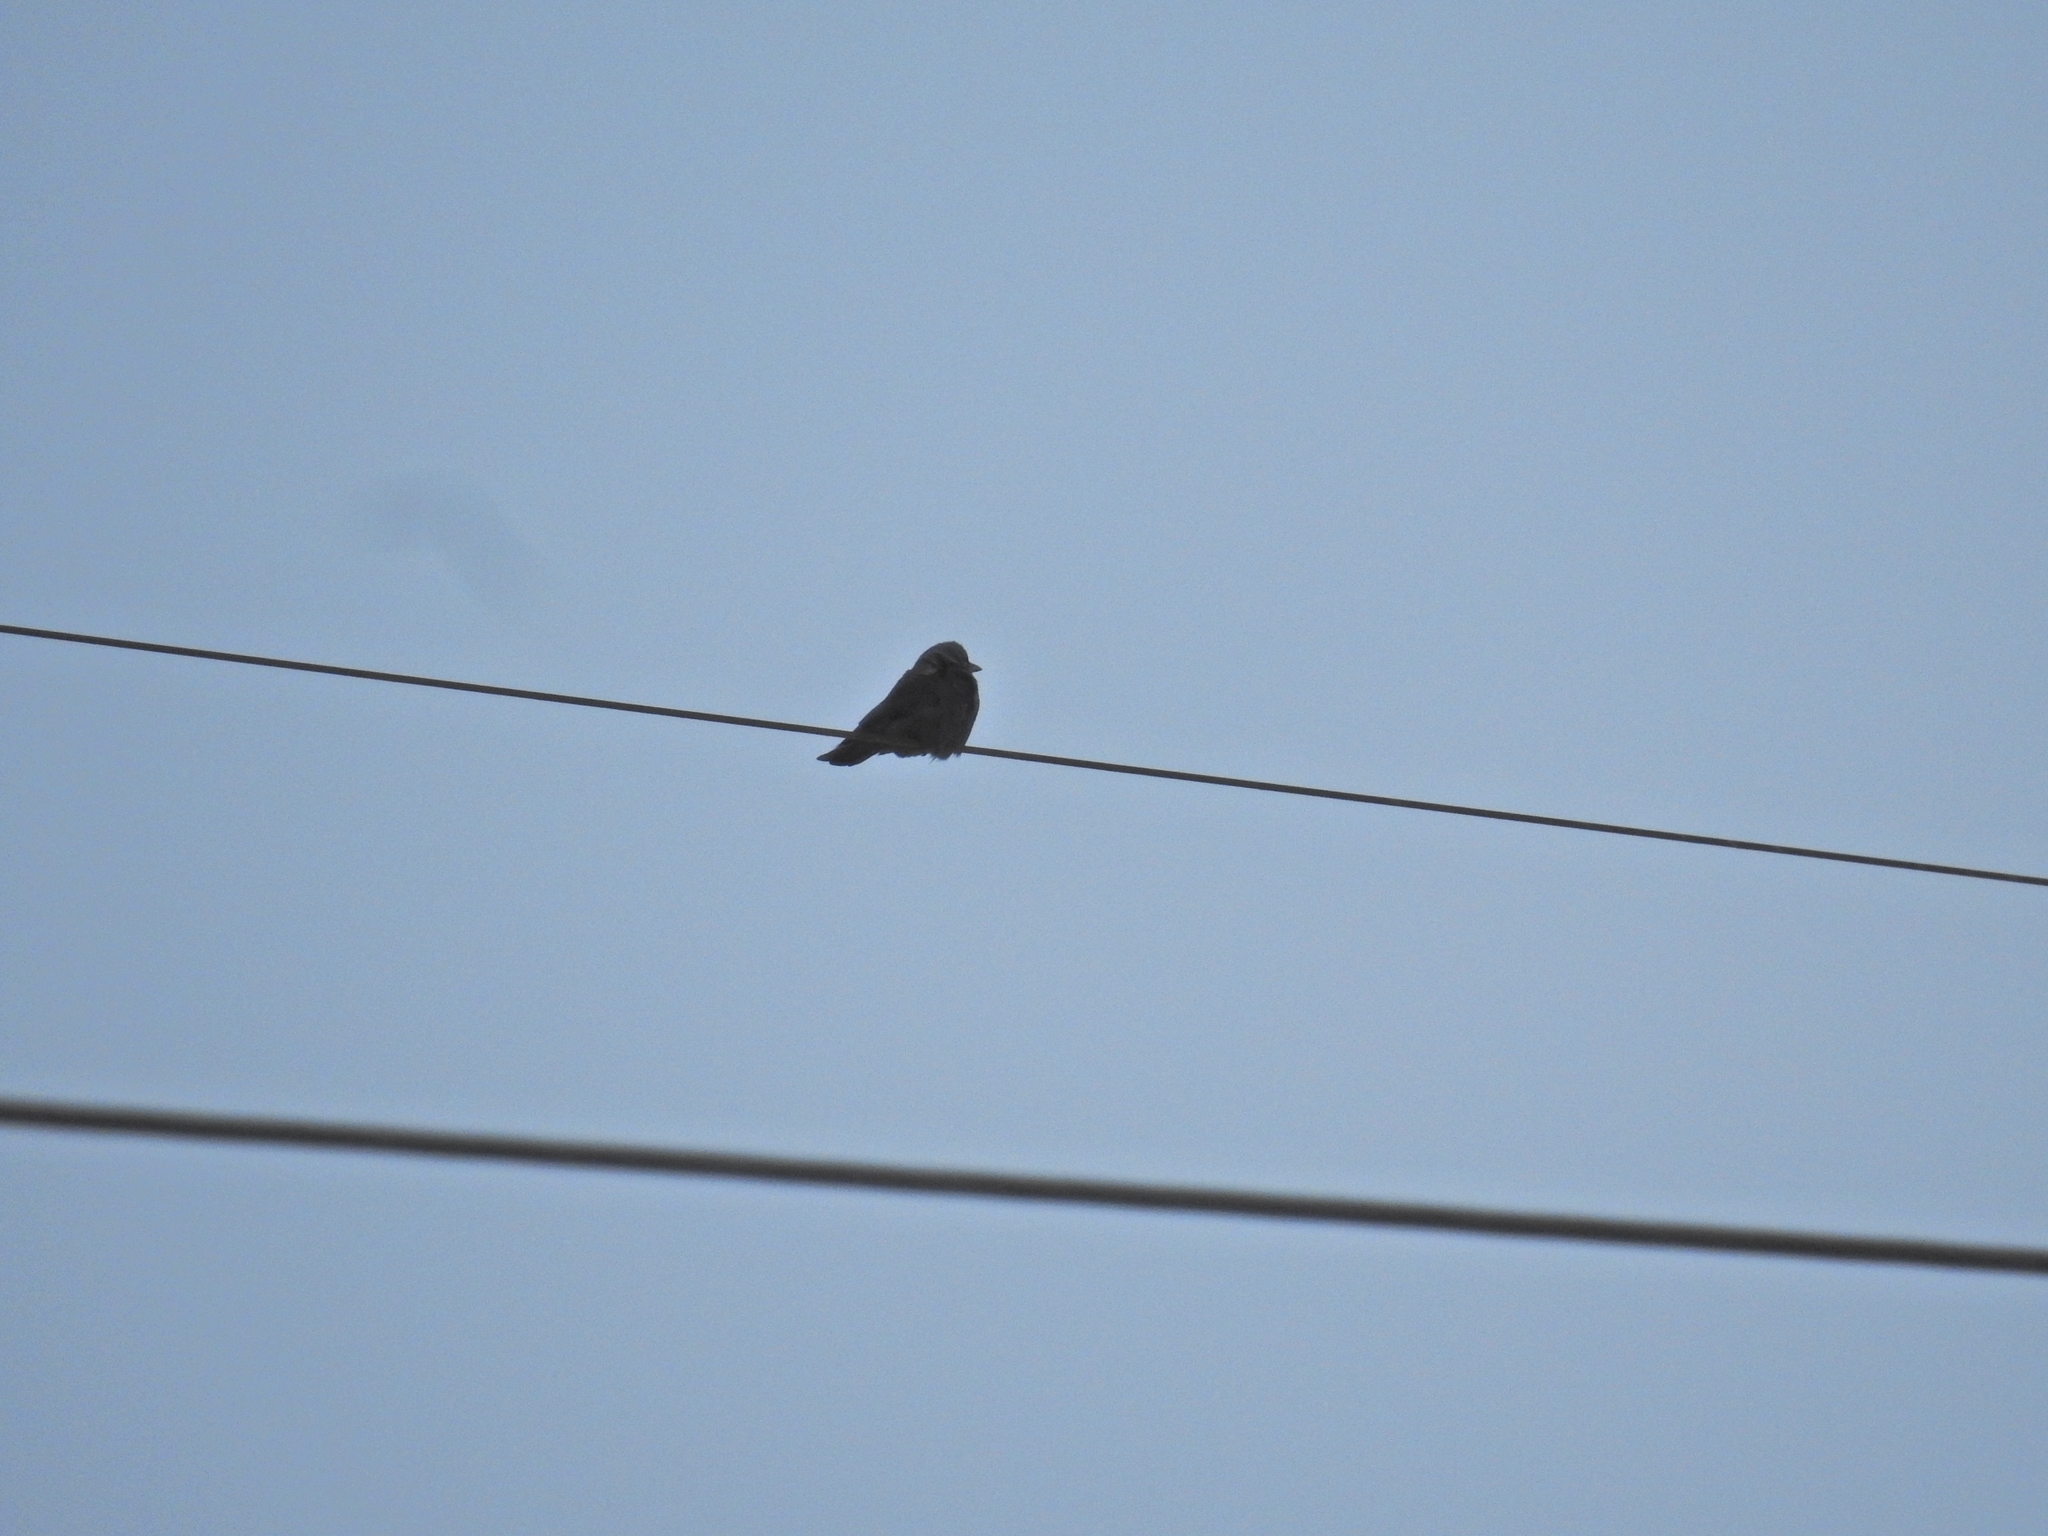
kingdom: Animalia
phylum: Chordata
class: Aves
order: Passeriformes
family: Corvidae
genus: Coloeus
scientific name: Coloeus monedula
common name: Western jackdaw
